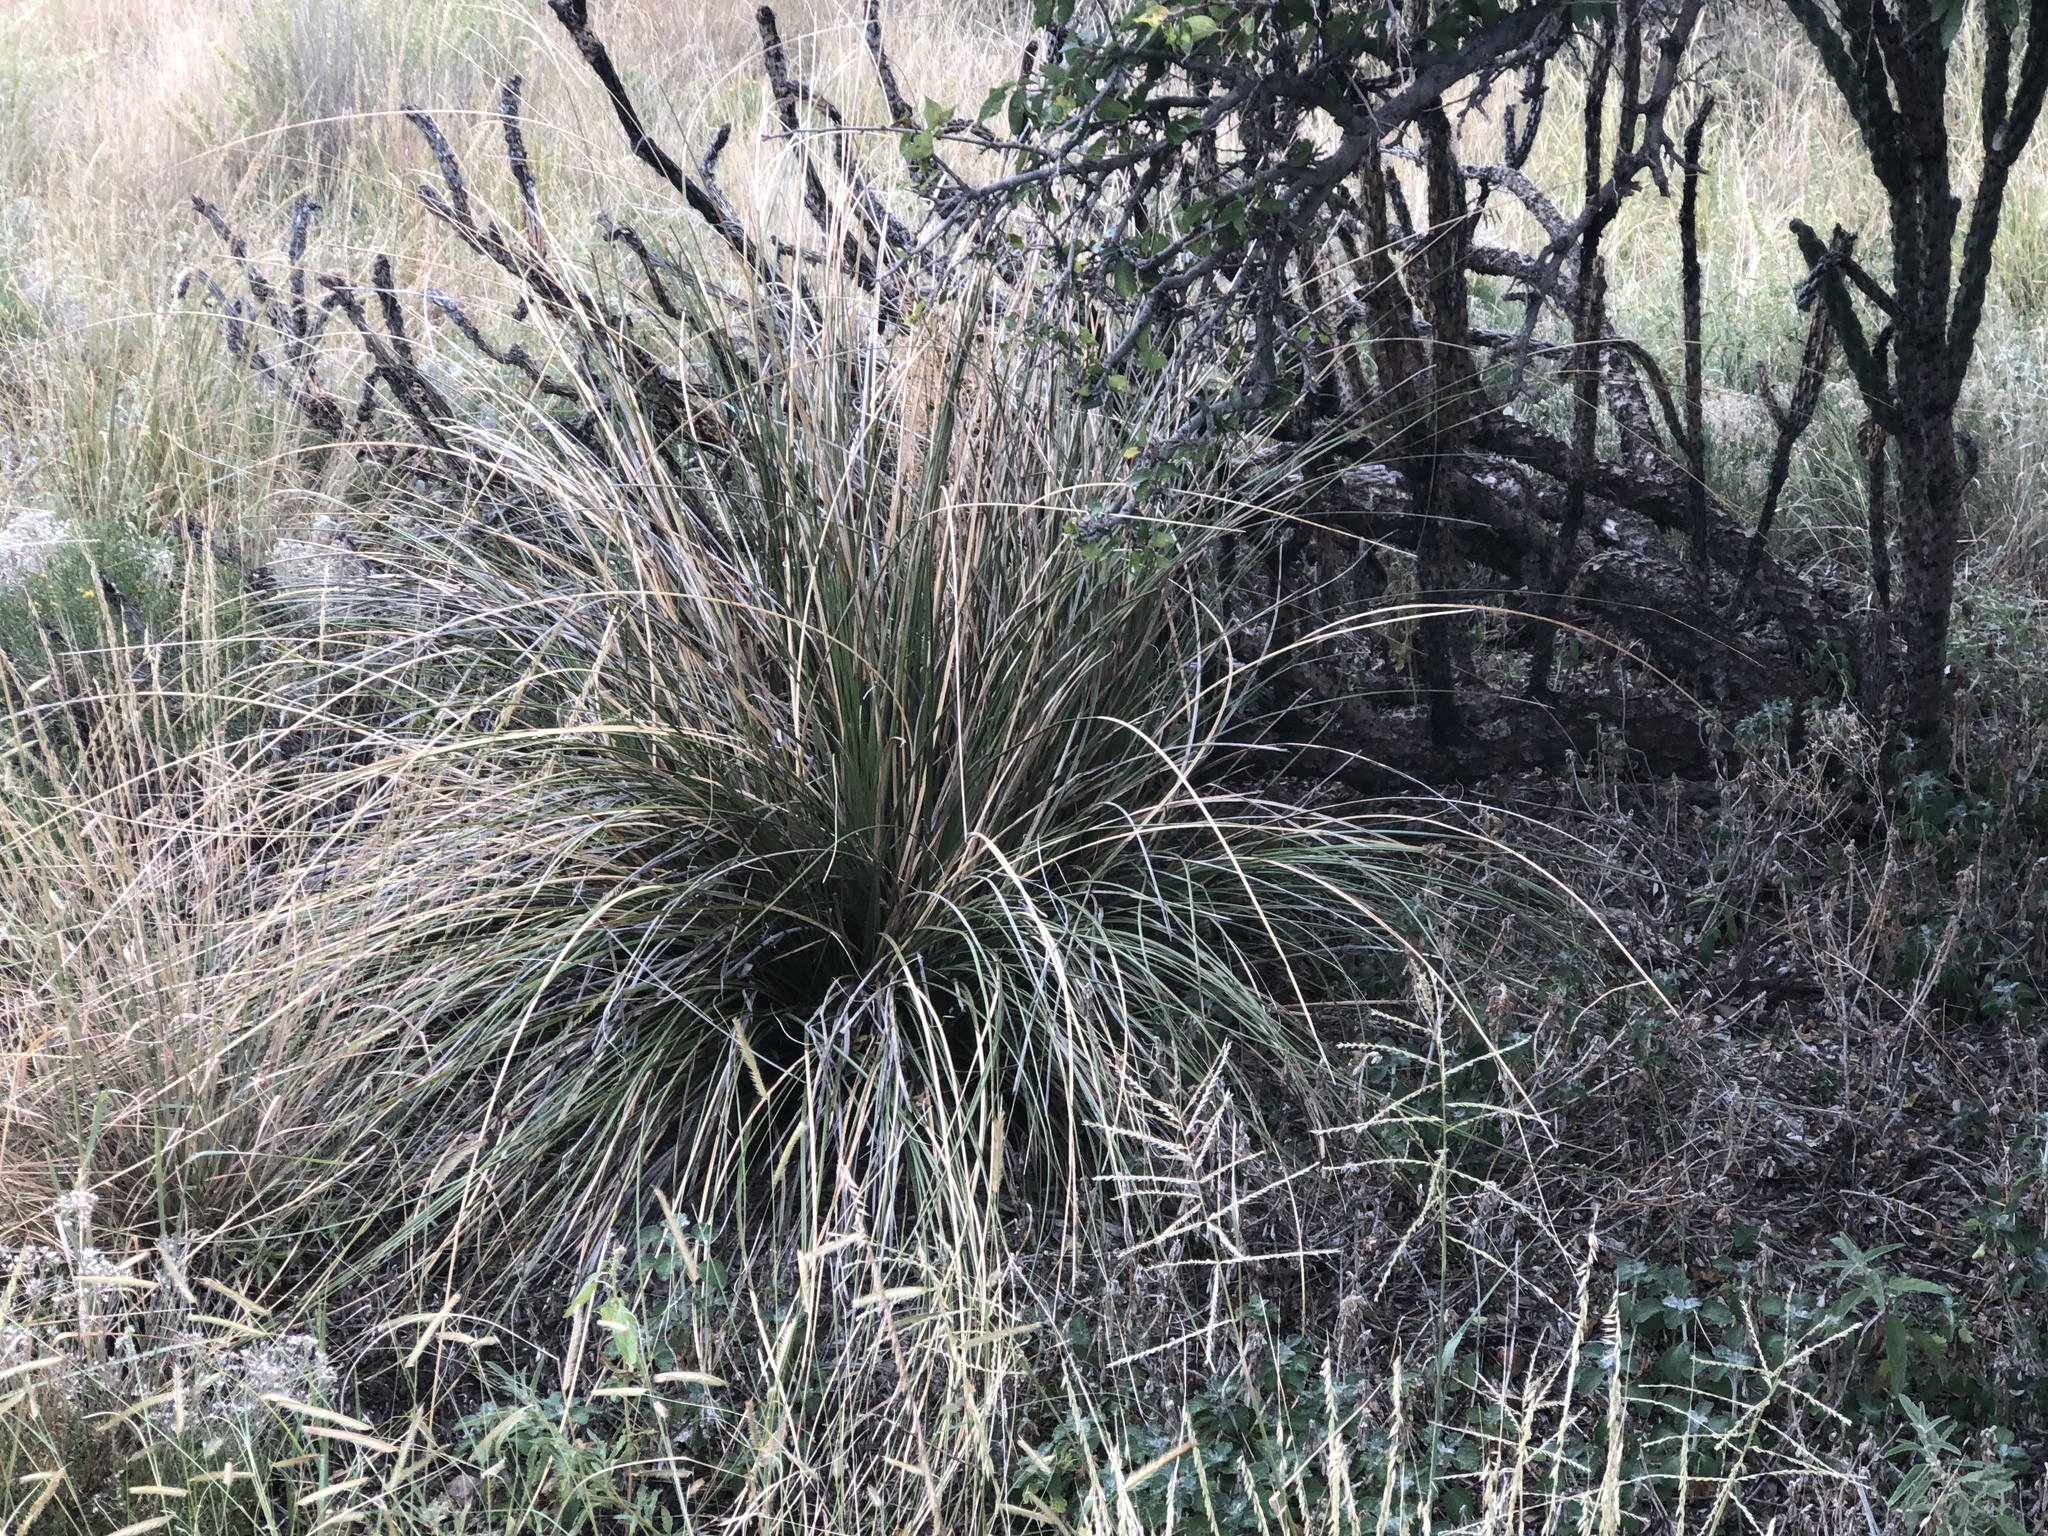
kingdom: Plantae
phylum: Tracheophyta
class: Liliopsida
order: Asparagales
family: Asparagaceae
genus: Nolina
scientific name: Nolina texana
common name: Texas sacahuiste
